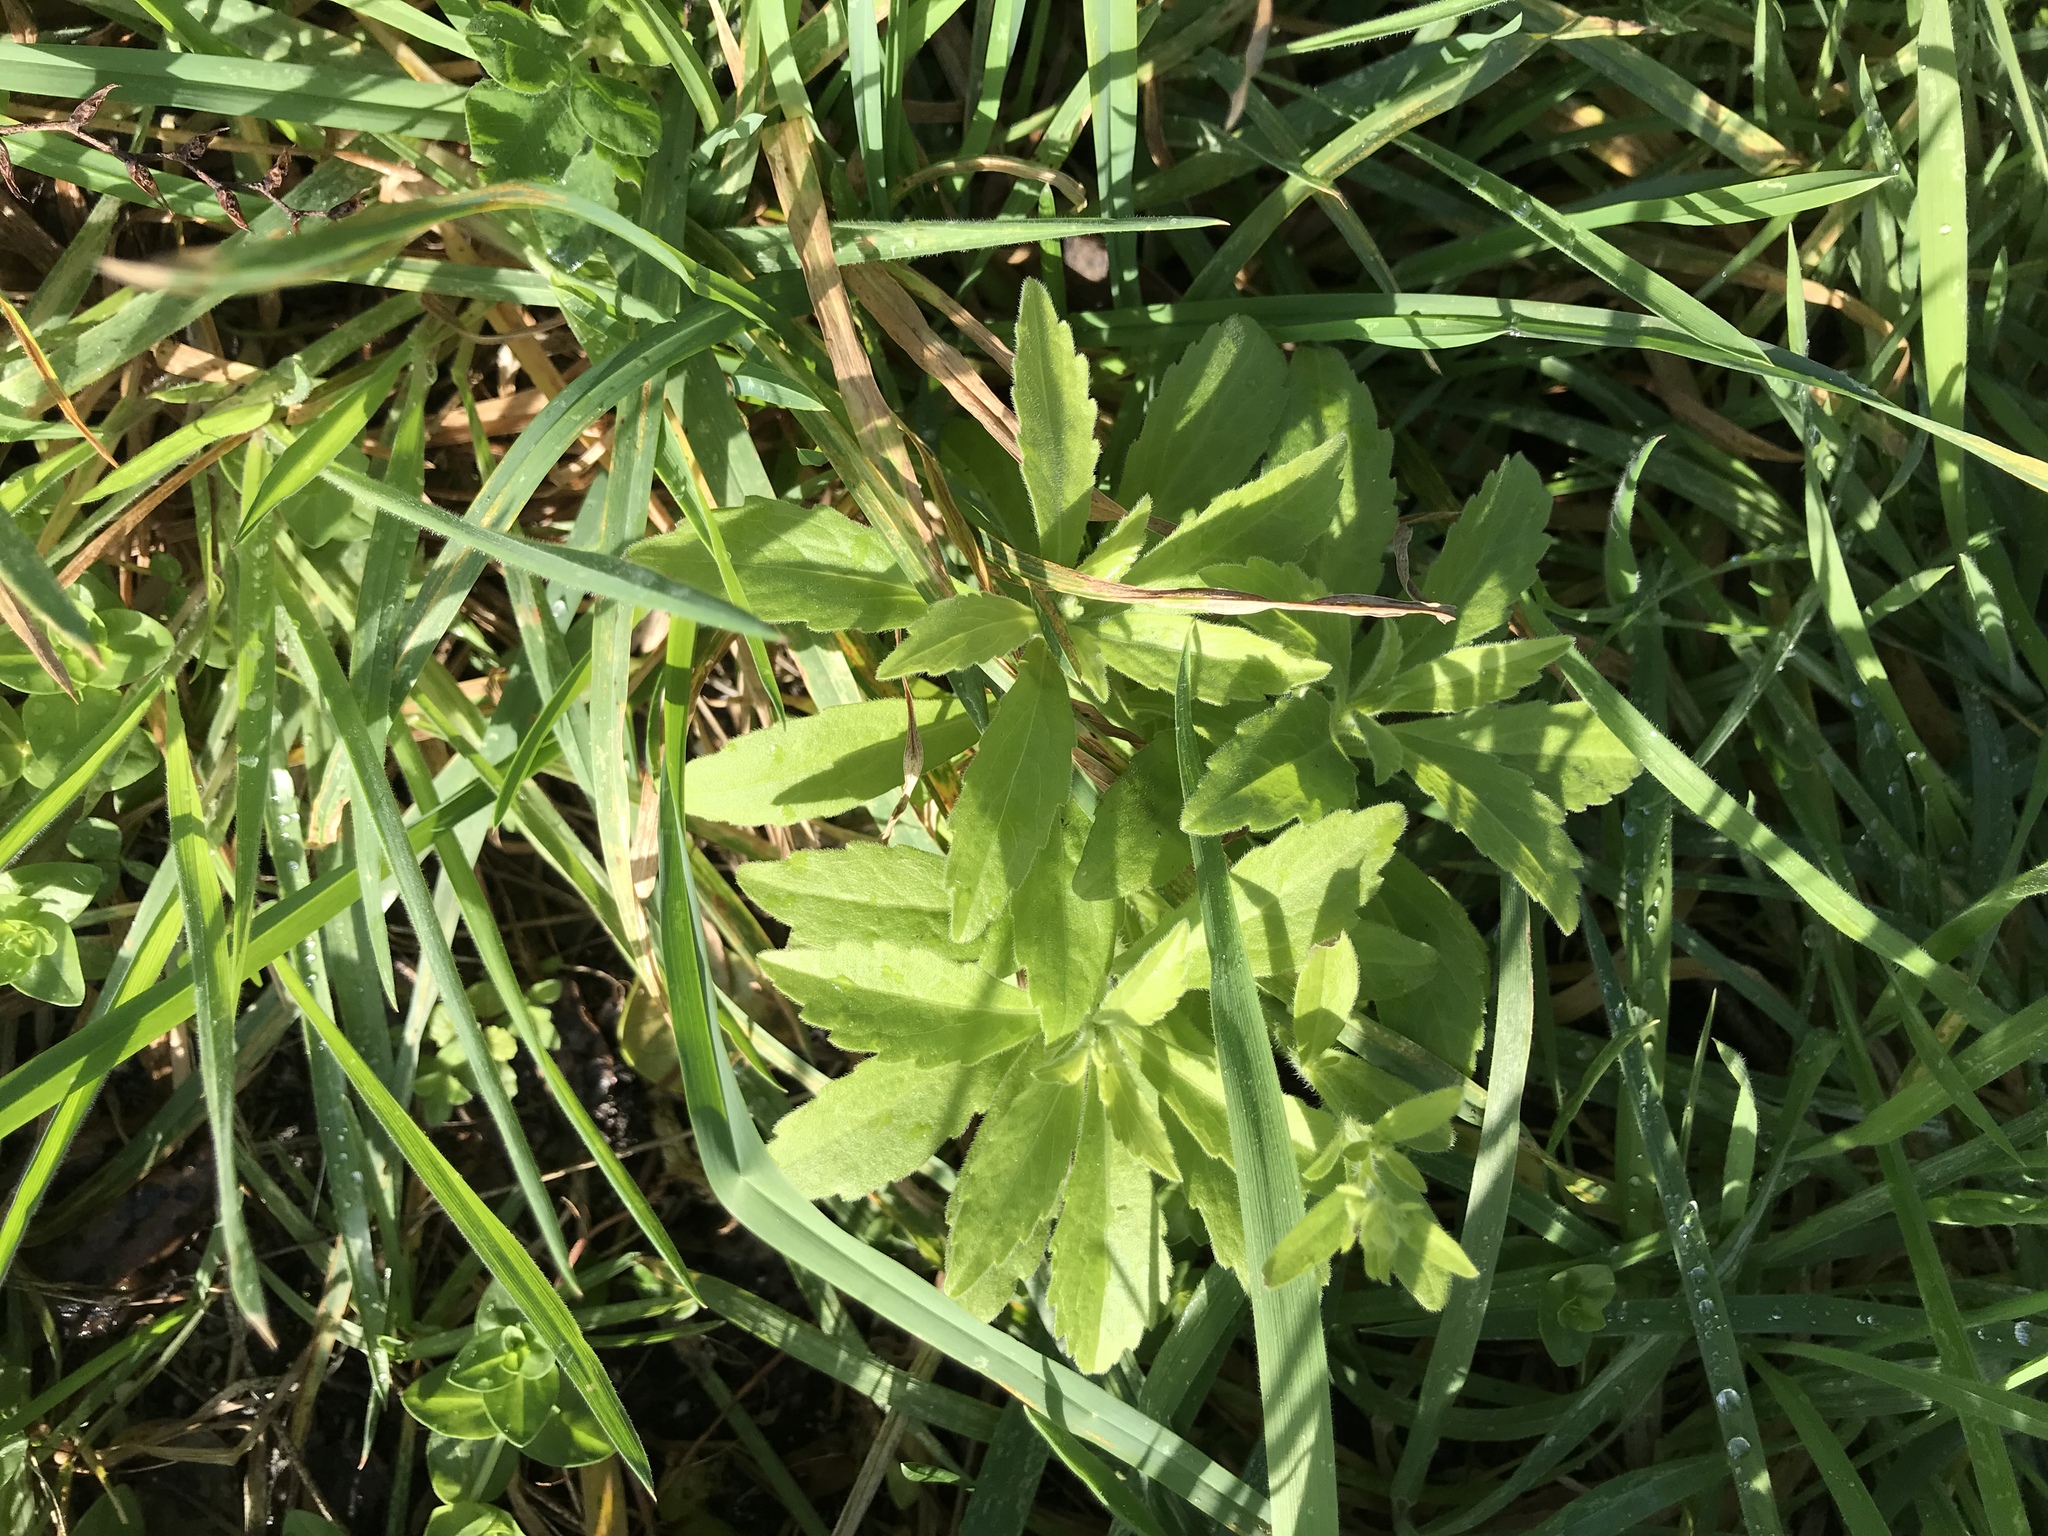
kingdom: Plantae
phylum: Tracheophyta
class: Magnoliopsida
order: Asterales
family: Asteraceae
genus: Erigeron
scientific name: Erigeron sumatrensis
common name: Daisy
